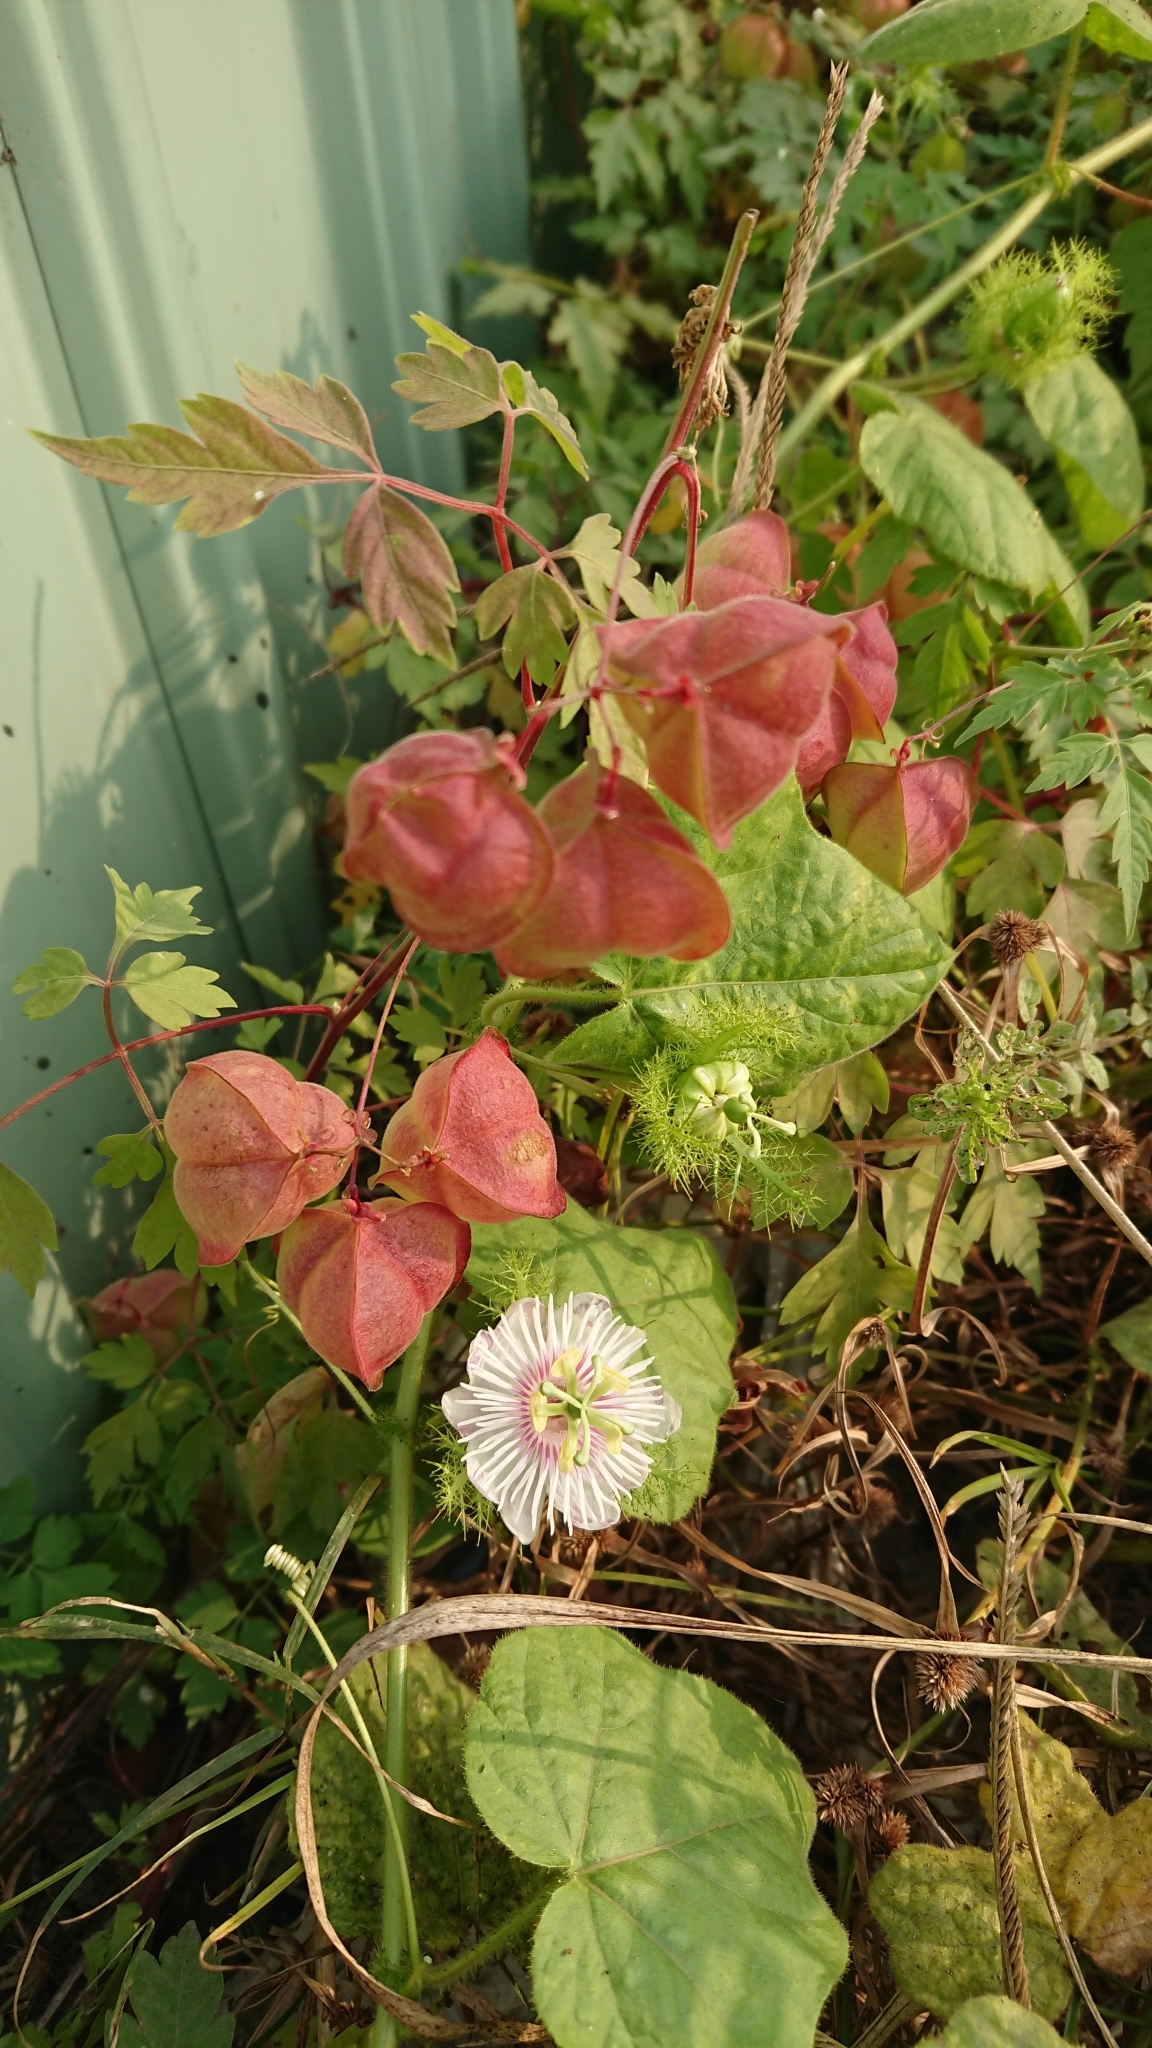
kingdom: Plantae
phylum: Tracheophyta
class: Magnoliopsida
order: Sapindales
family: Sapindaceae
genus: Cardiospermum
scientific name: Cardiospermum halicacabum
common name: Balloon vine
